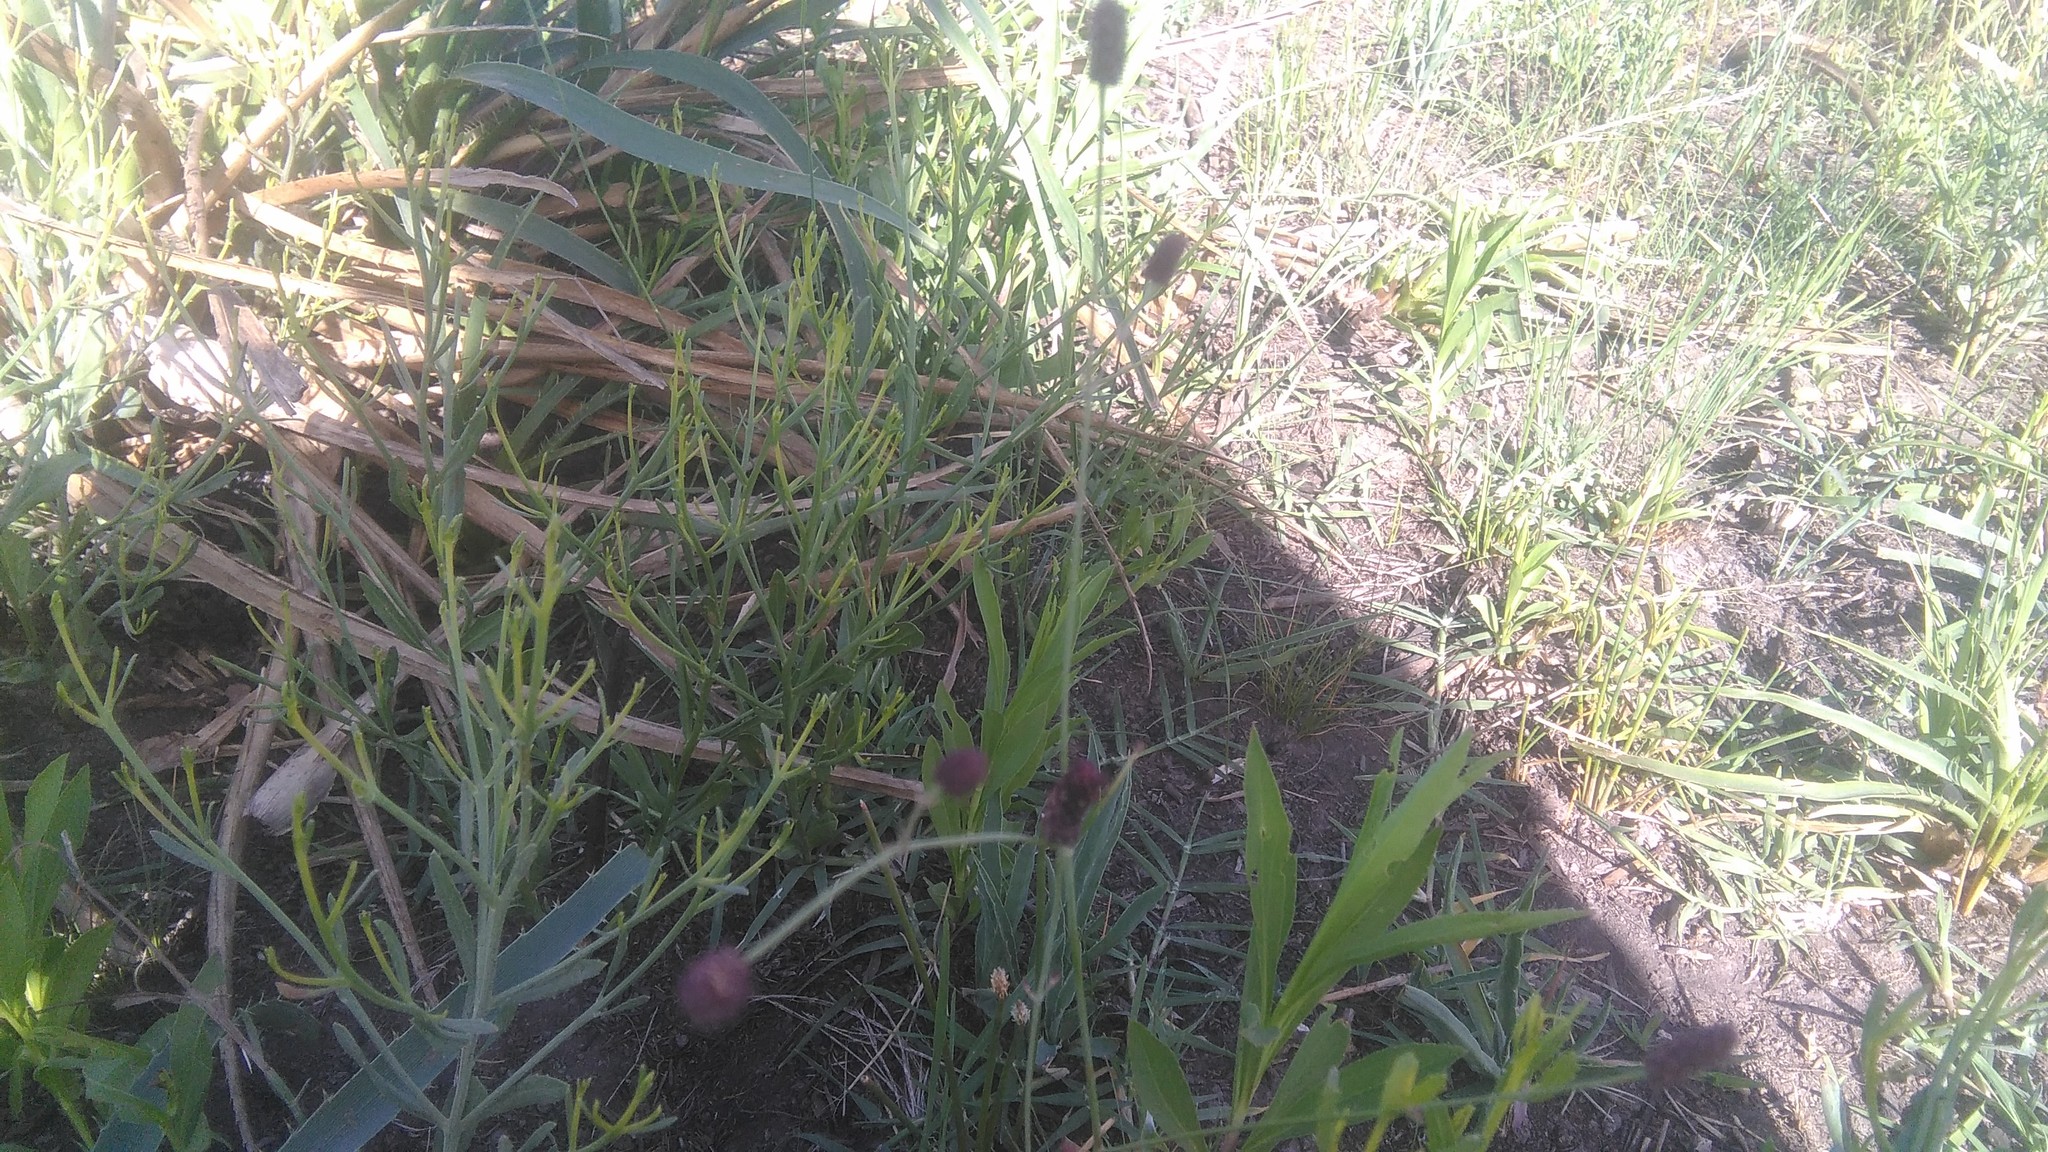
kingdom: Plantae
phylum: Tracheophyta
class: Magnoliopsida
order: Apiales
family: Apiaceae
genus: Eryngium
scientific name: Eryngium ebracteatum
